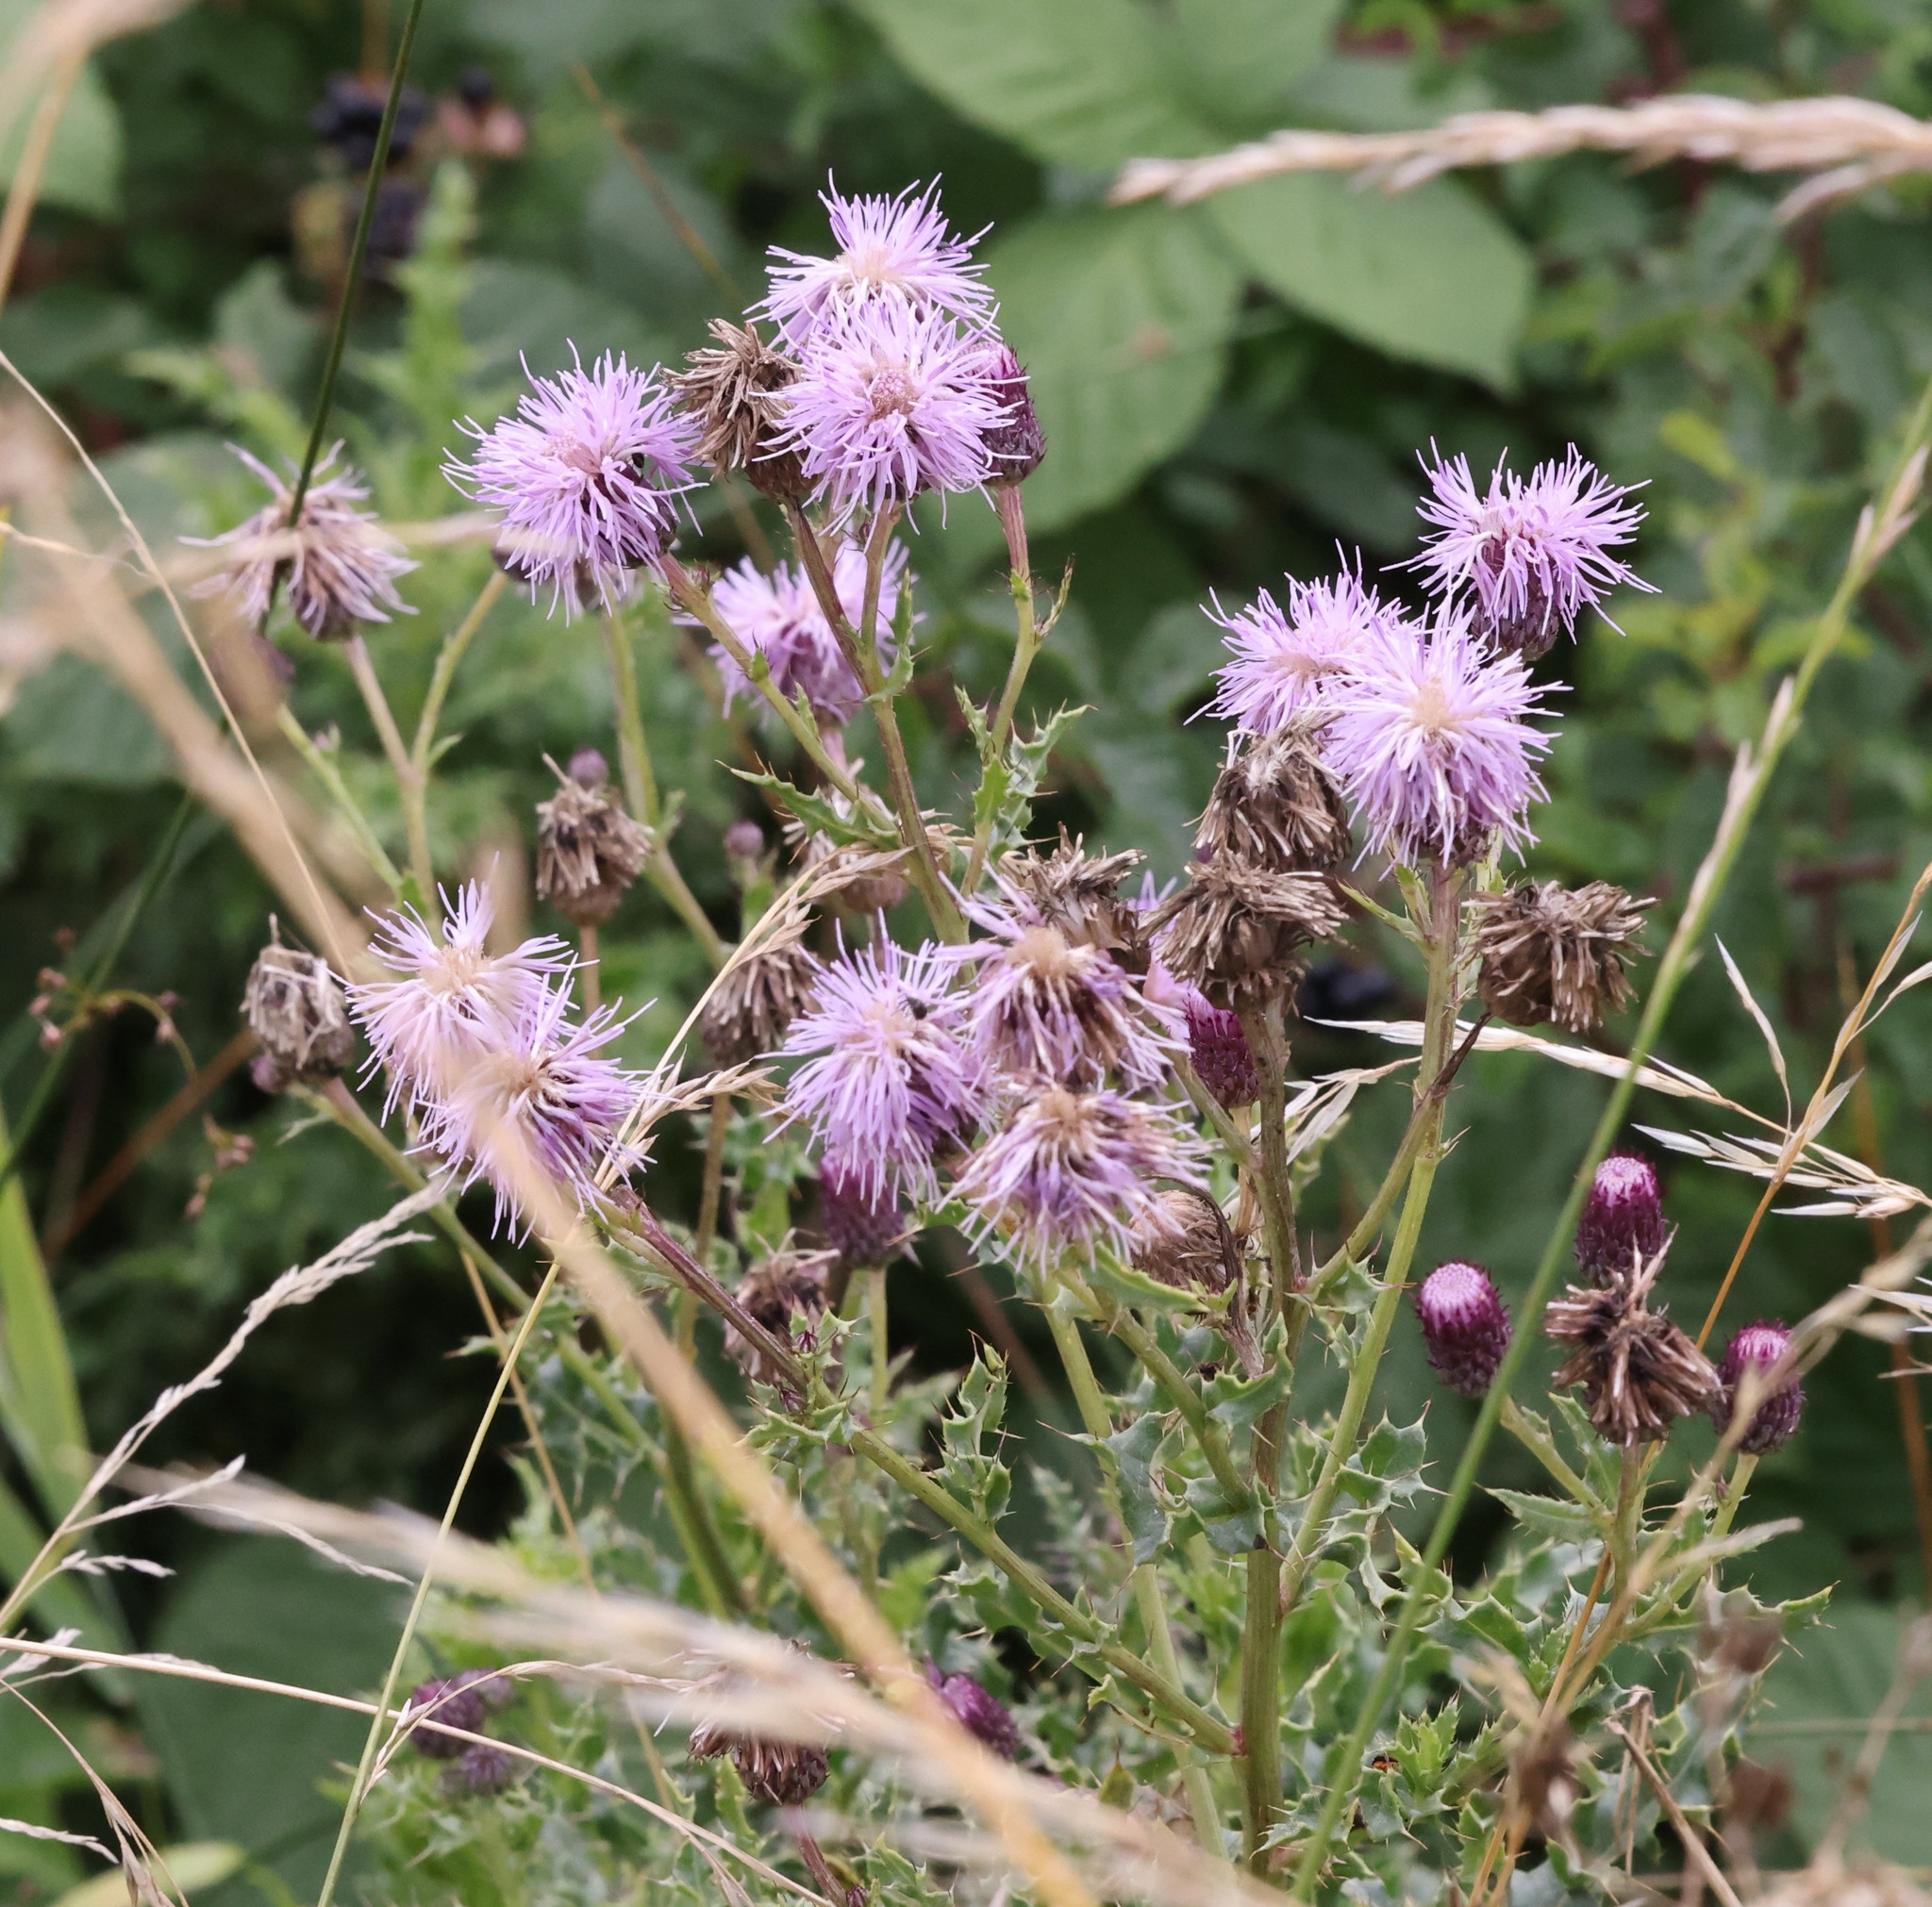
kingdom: Plantae
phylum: Tracheophyta
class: Magnoliopsida
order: Asterales
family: Asteraceae
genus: Cirsium
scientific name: Cirsium arvense
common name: Creeping thistle
